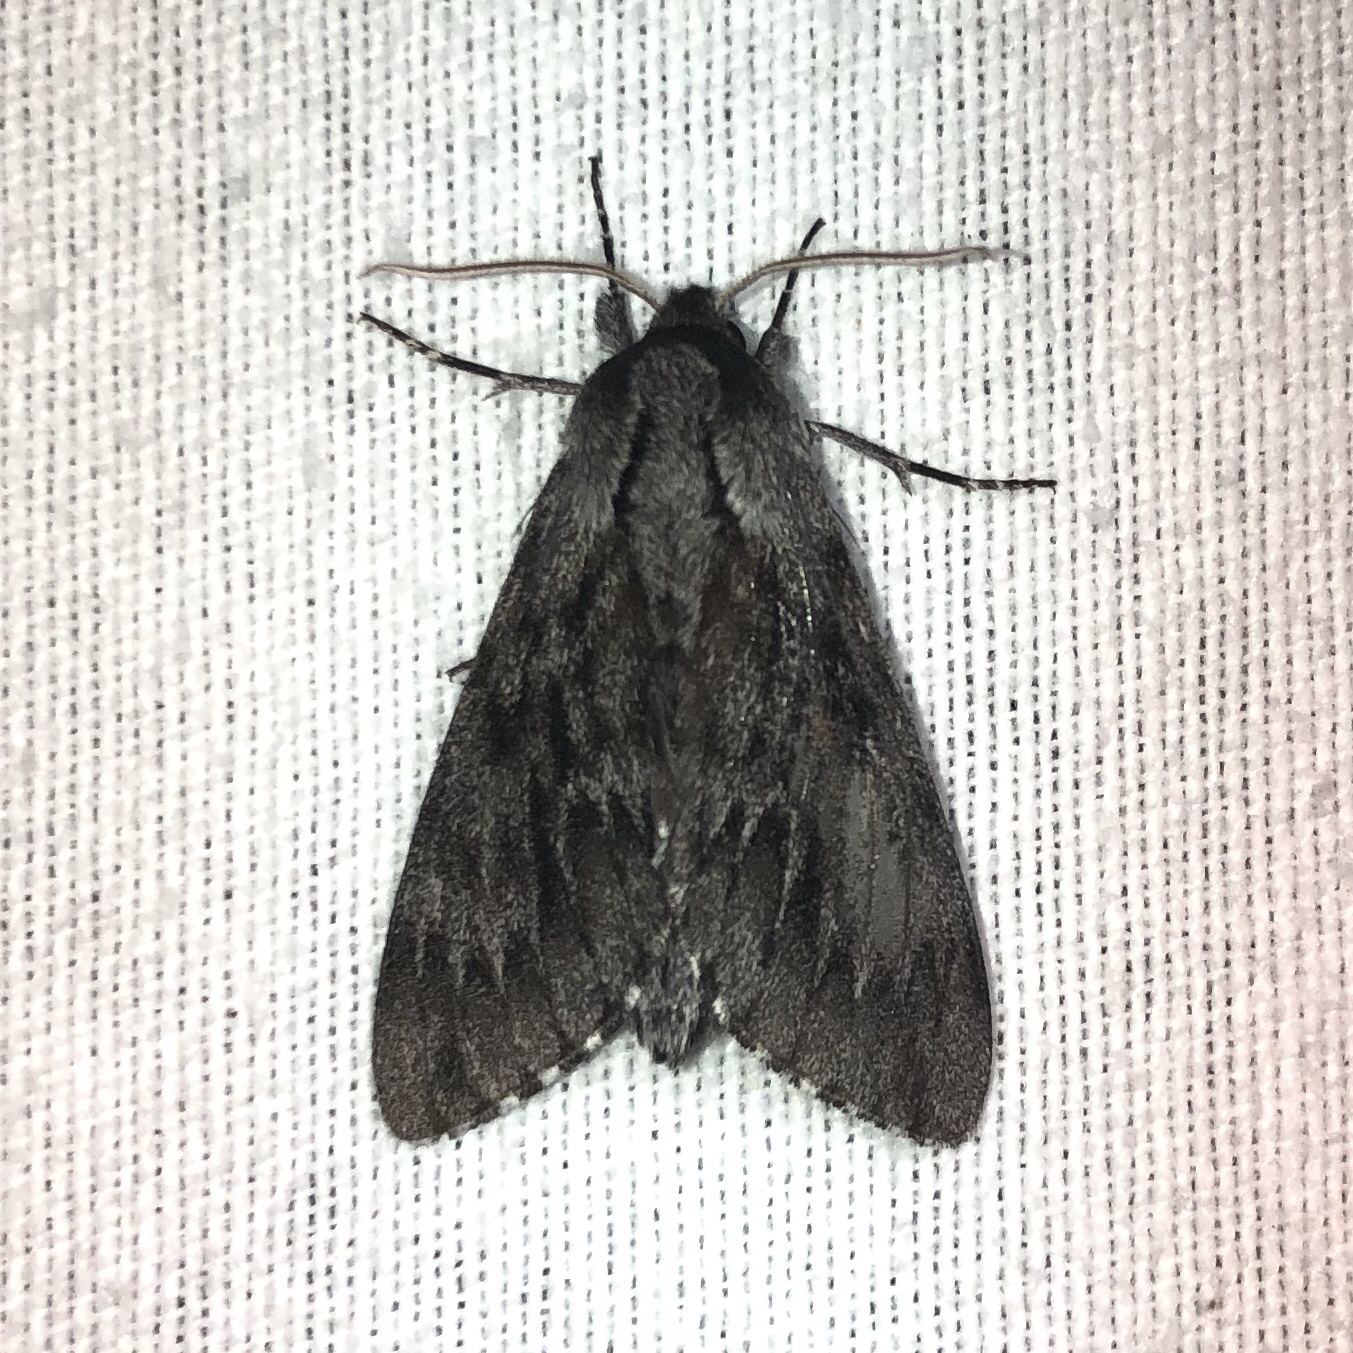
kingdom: Animalia
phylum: Arthropoda
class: Insecta
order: Lepidoptera
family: Sphingidae
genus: Lapara
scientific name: Lapara bombycoides
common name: Northern pine sphinx
